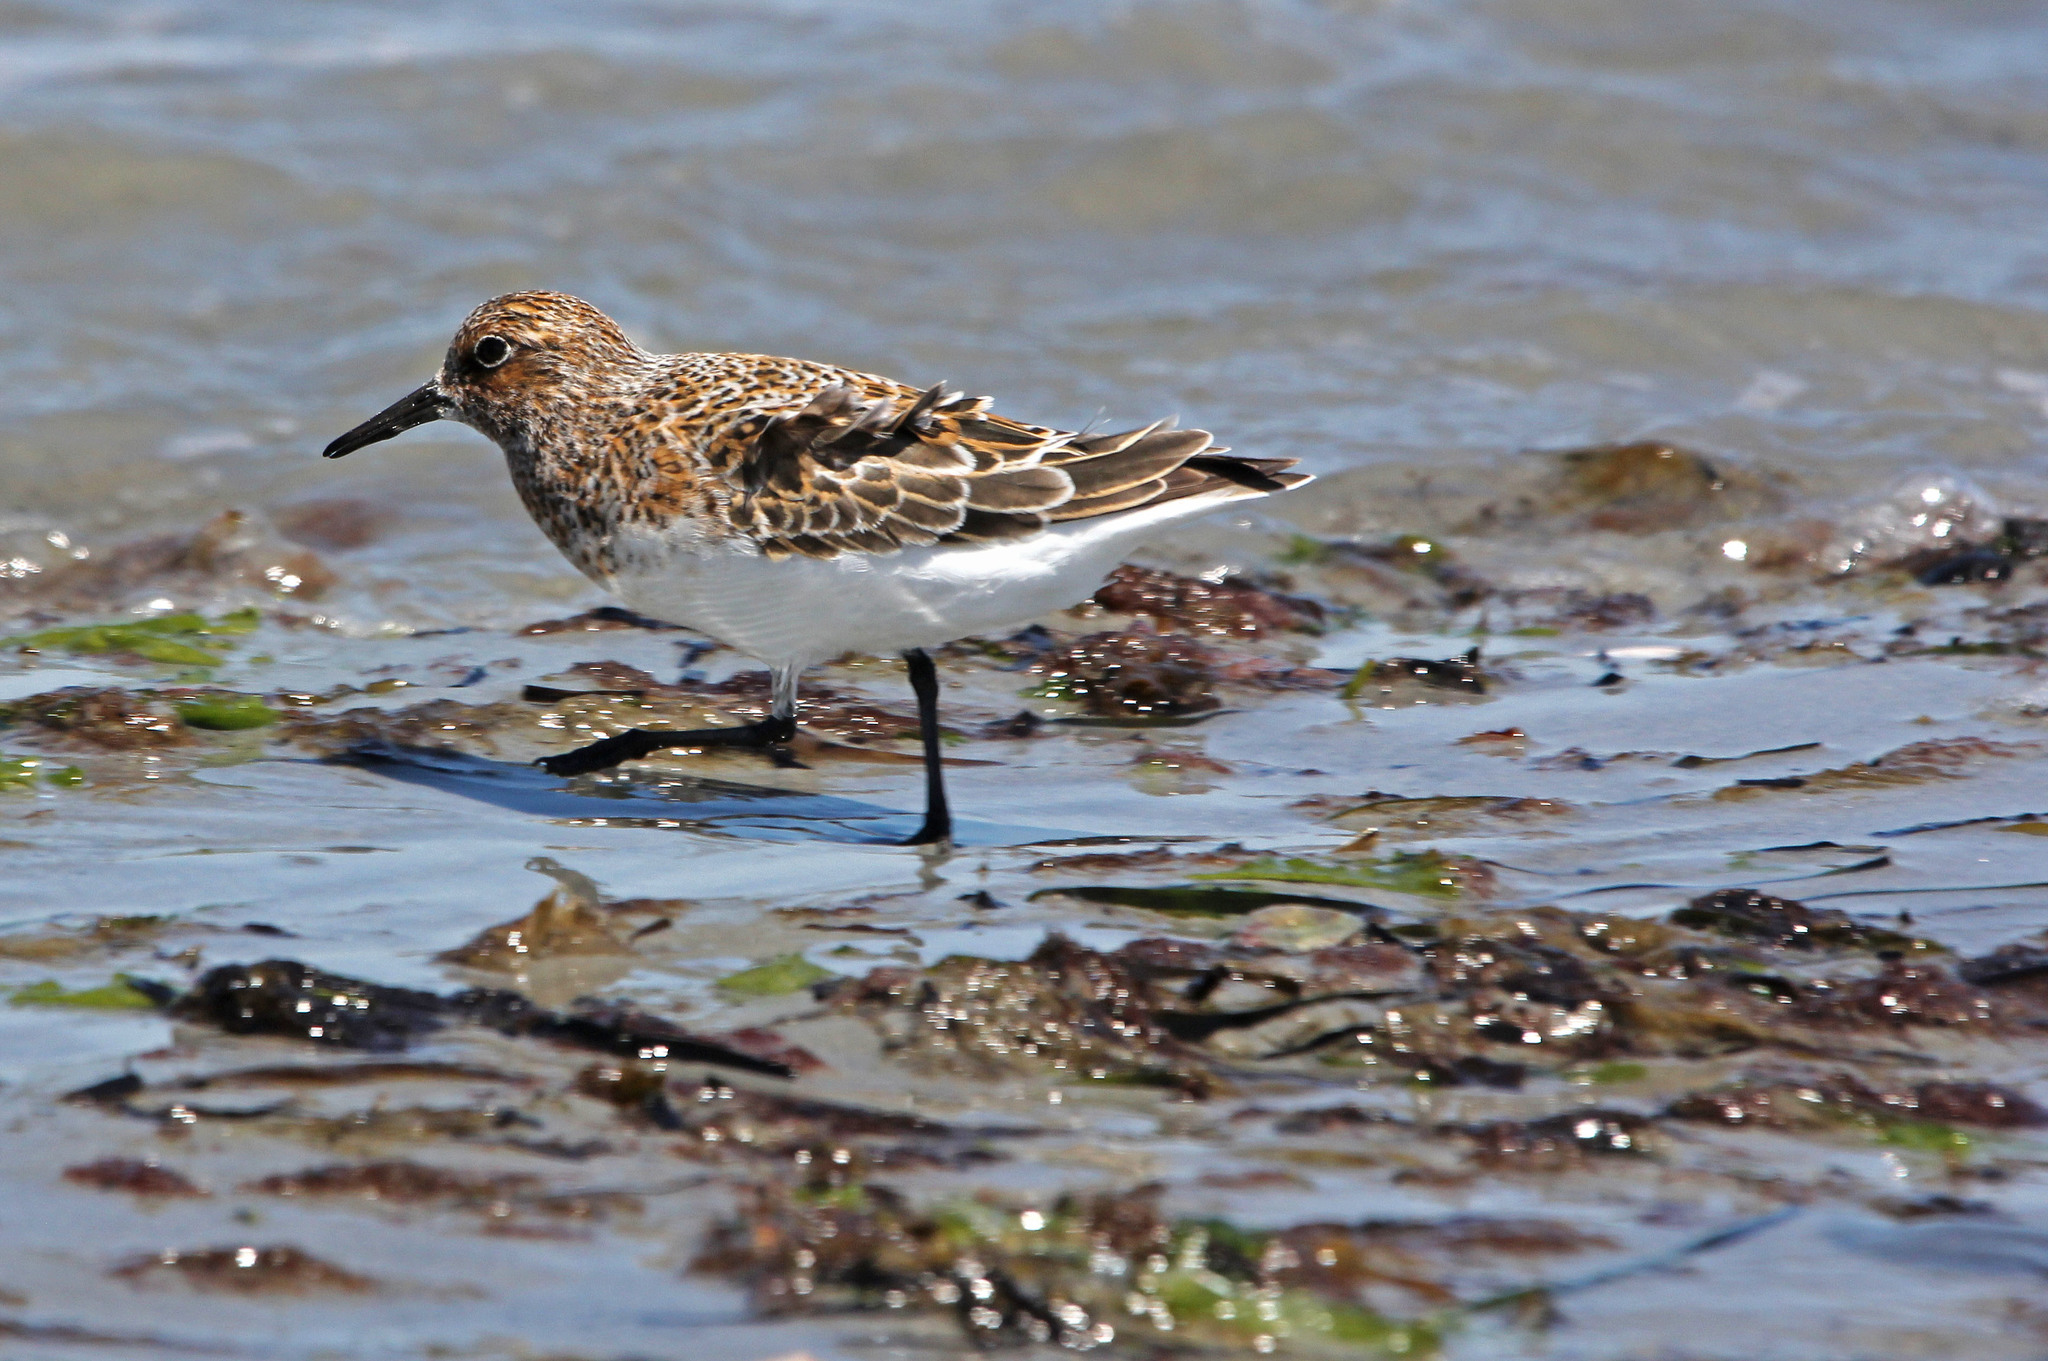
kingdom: Animalia
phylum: Chordata
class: Aves
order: Charadriiformes
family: Scolopacidae
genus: Calidris
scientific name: Calidris alba
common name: Sanderling
